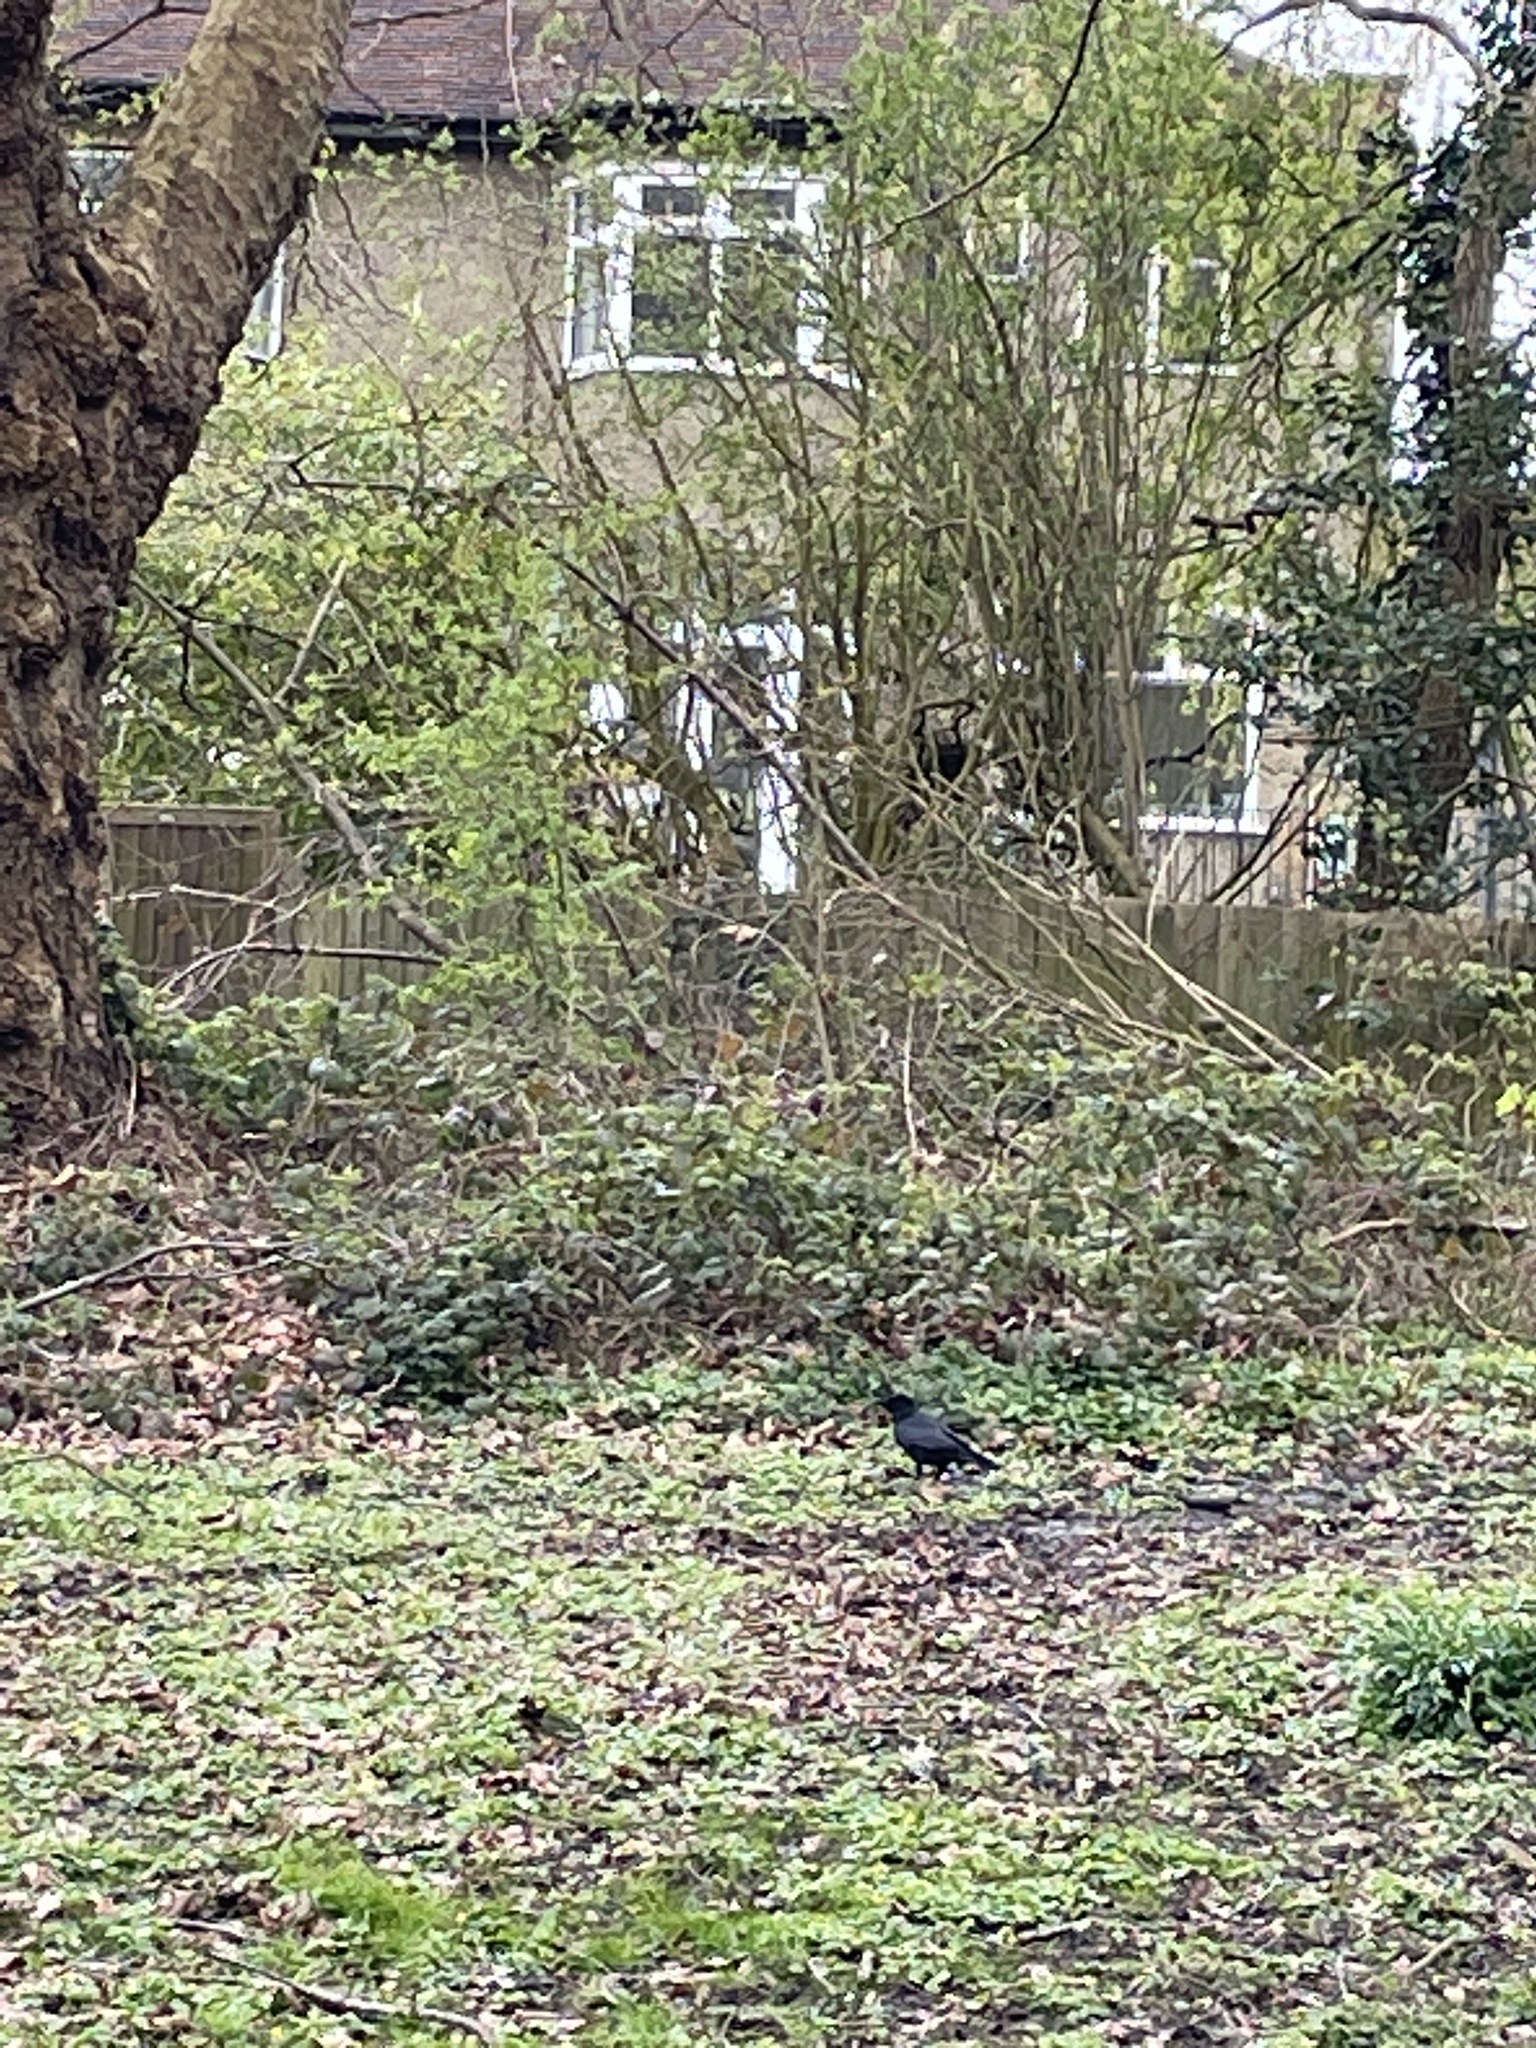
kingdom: Animalia
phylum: Chordata
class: Aves
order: Passeriformes
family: Corvidae
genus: Corvus
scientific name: Corvus corone
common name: Carrion crow
